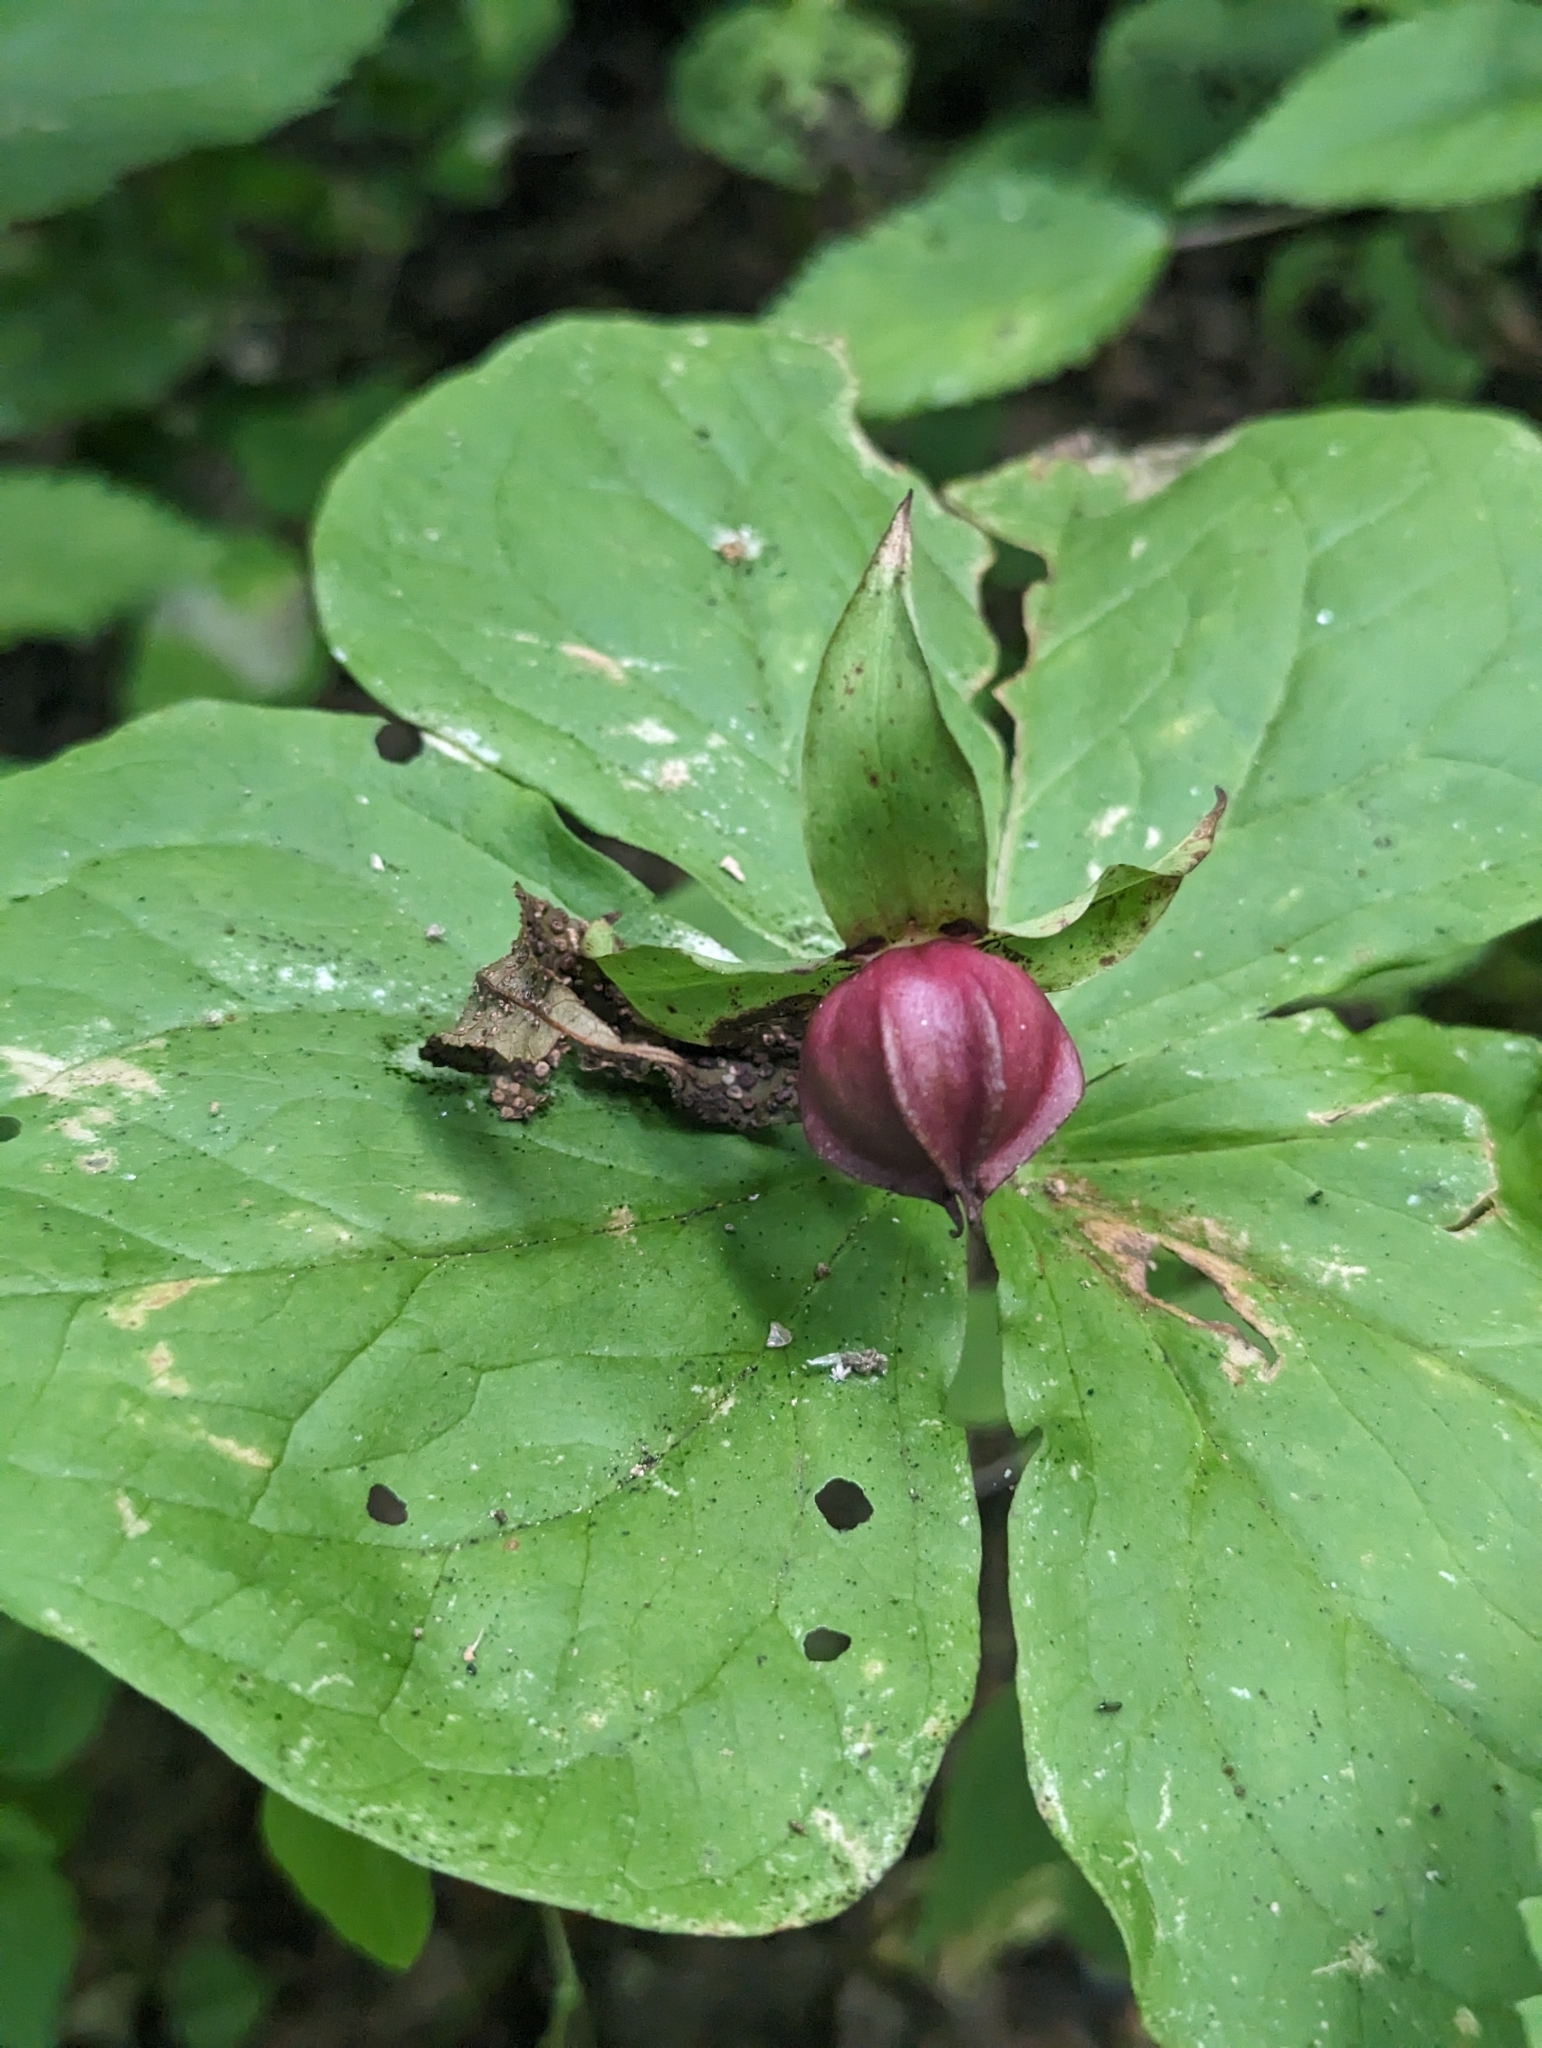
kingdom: Plantae
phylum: Tracheophyta
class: Liliopsida
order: Liliales
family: Melanthiaceae
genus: Trillium
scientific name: Trillium erectum
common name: Purple trillium
